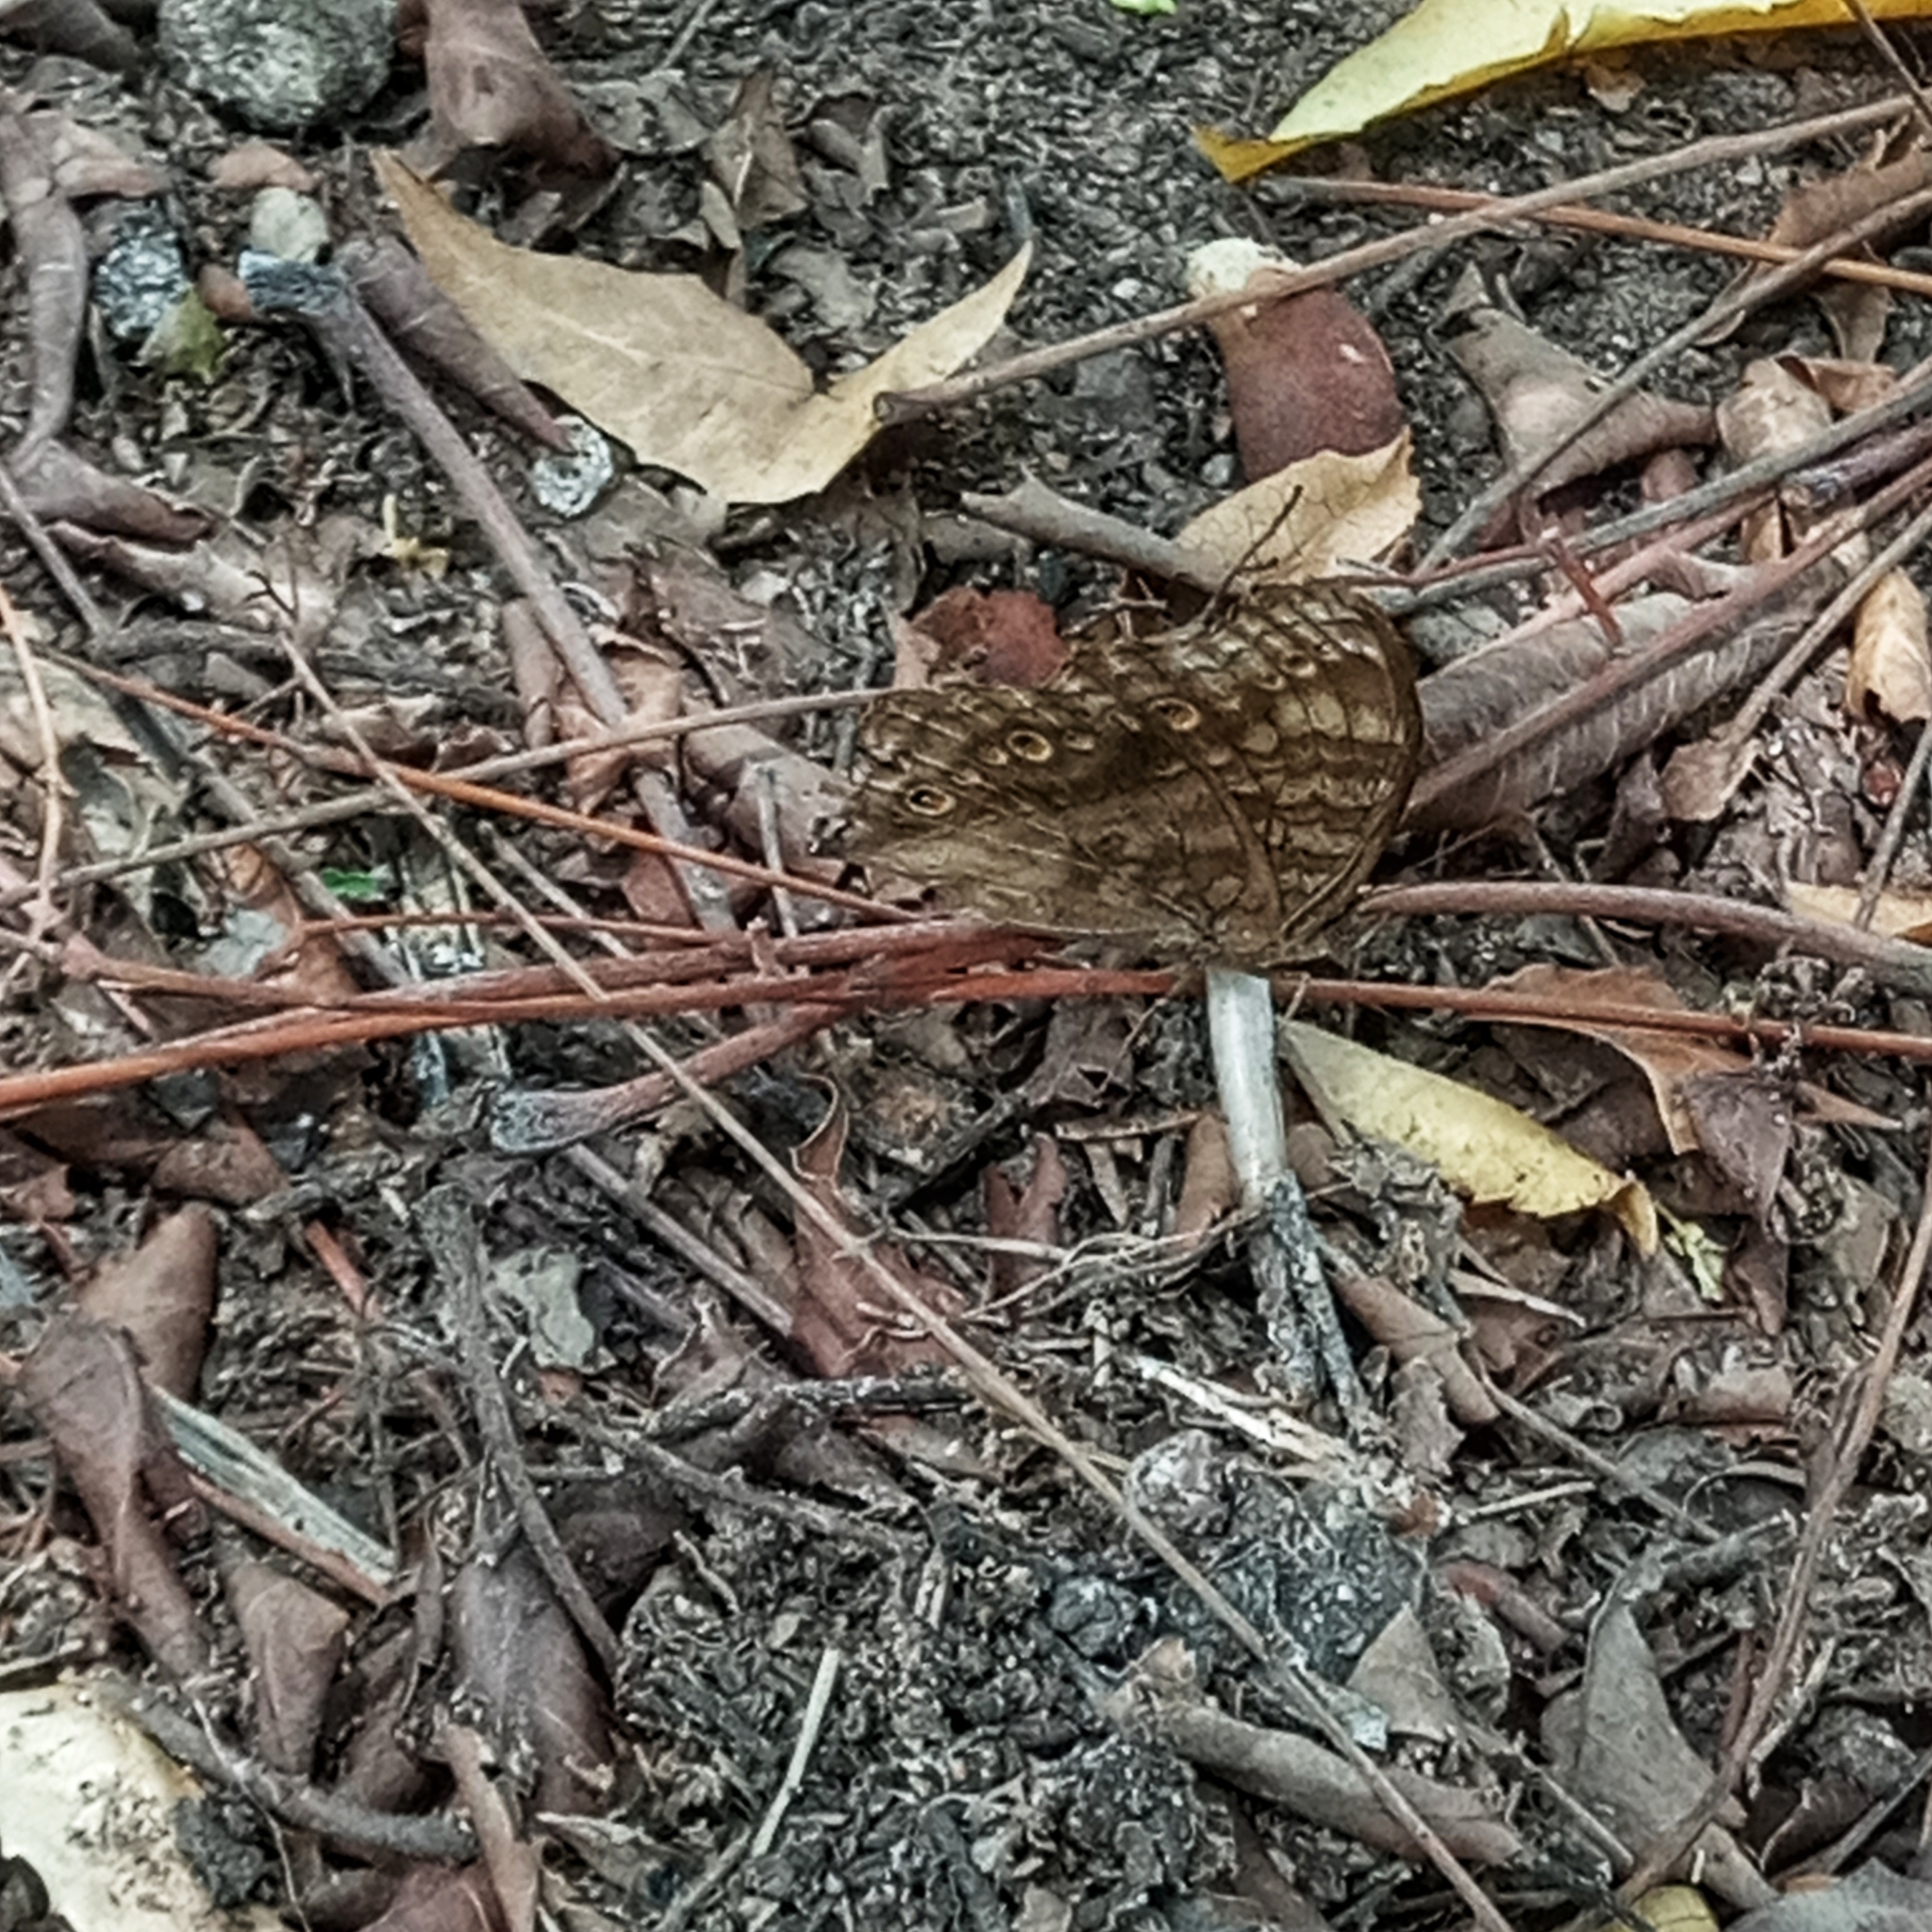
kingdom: Animalia
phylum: Arthropoda
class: Insecta
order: Lepidoptera
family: Nymphalidae
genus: Junonia
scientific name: Junonia chorimene
